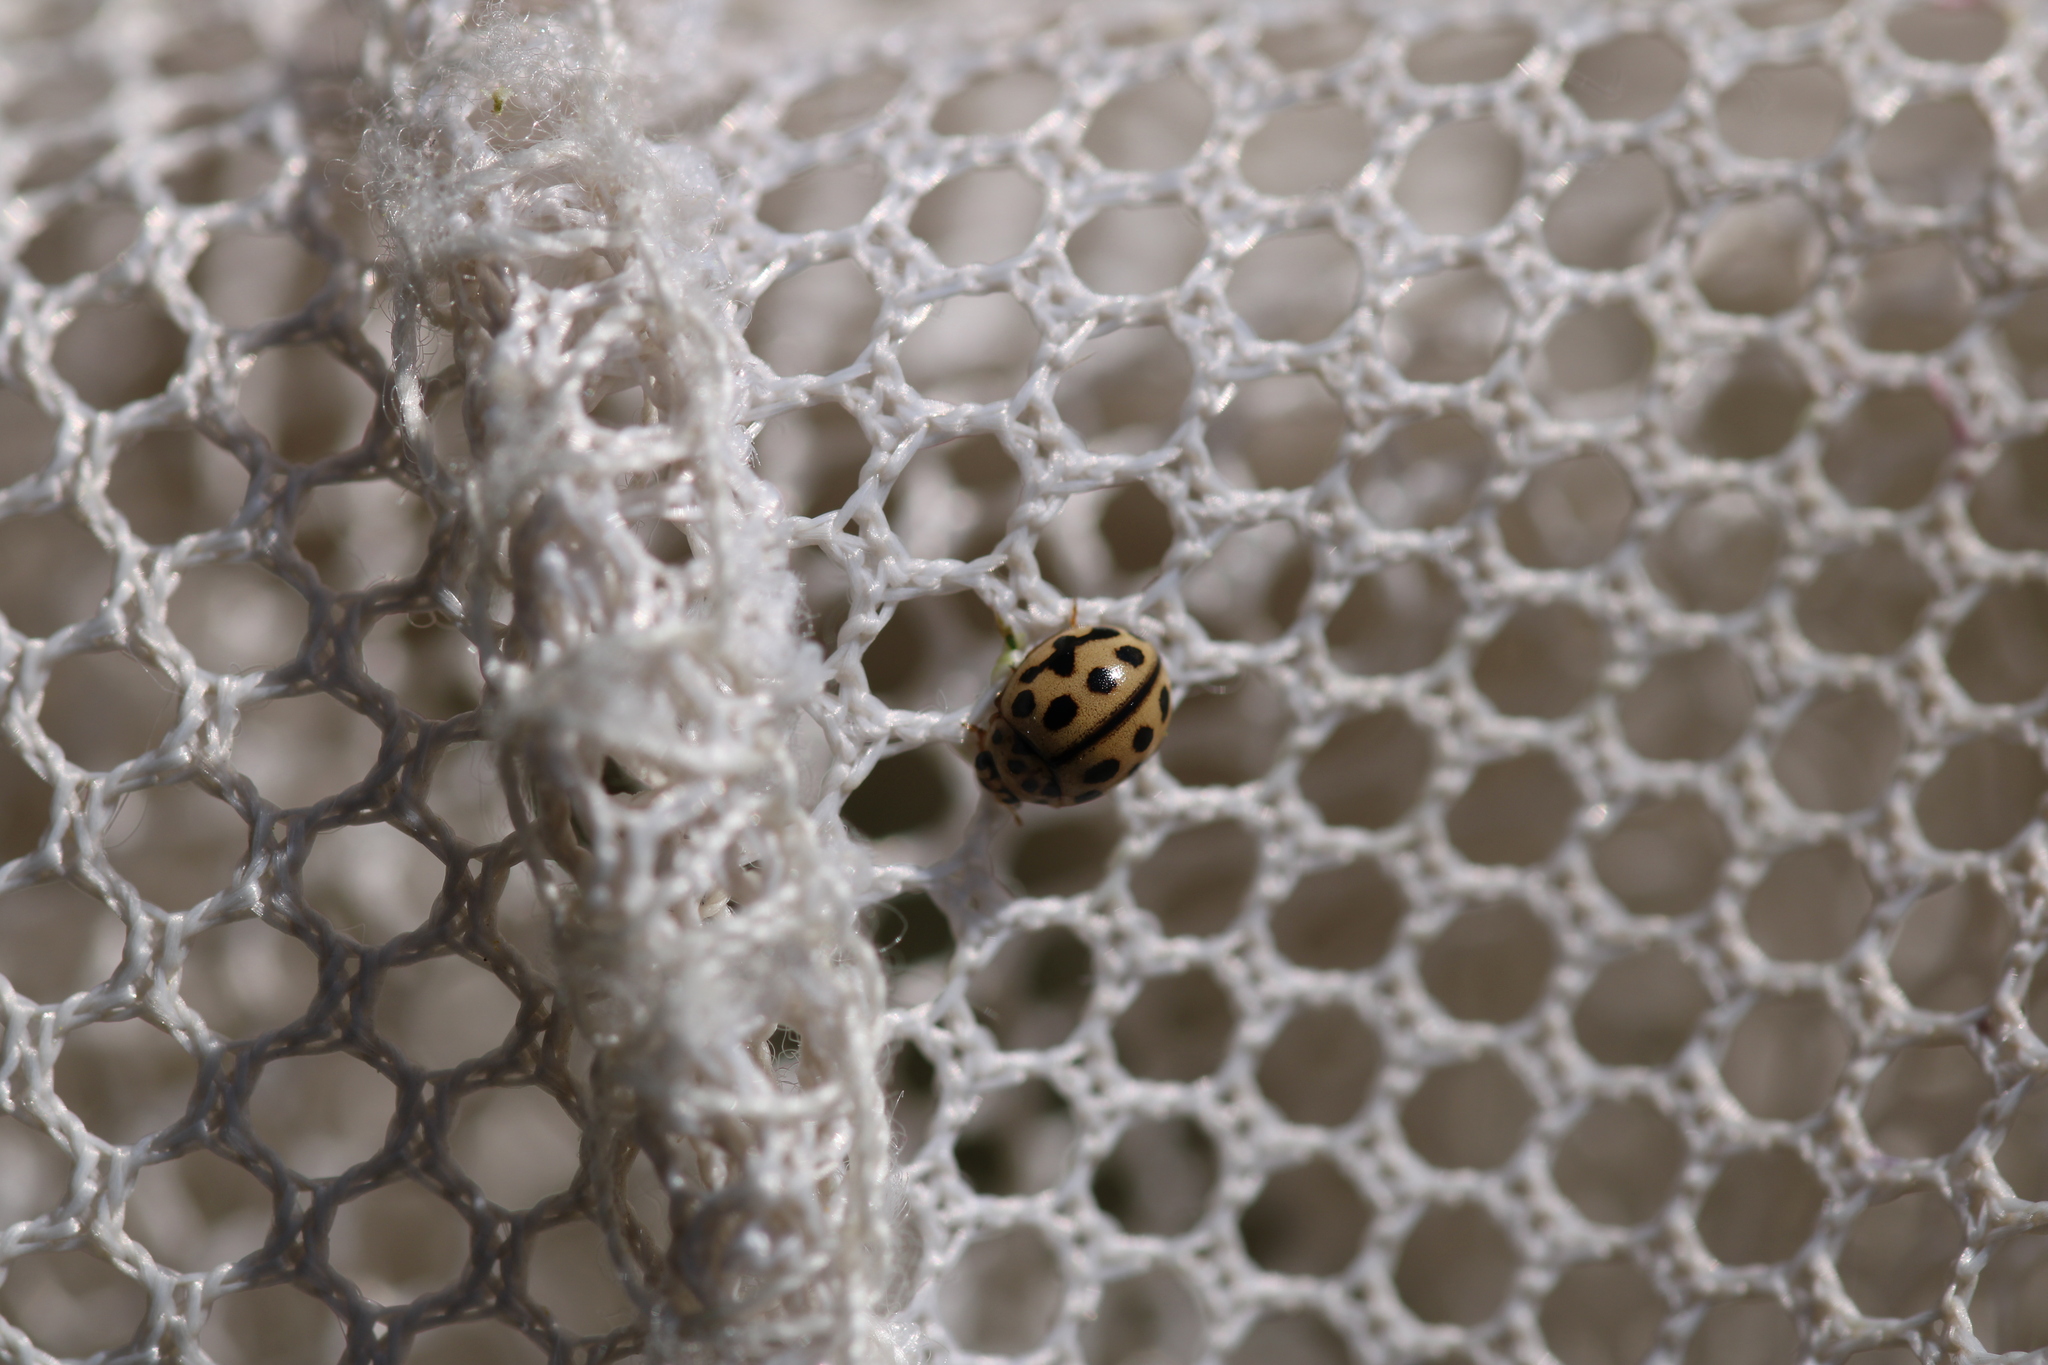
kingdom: Animalia
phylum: Arthropoda
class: Insecta
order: Coleoptera
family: Coccinellidae
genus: Tytthaspis
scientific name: Tytthaspis sedecimpunctata
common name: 16-spot ladybird
